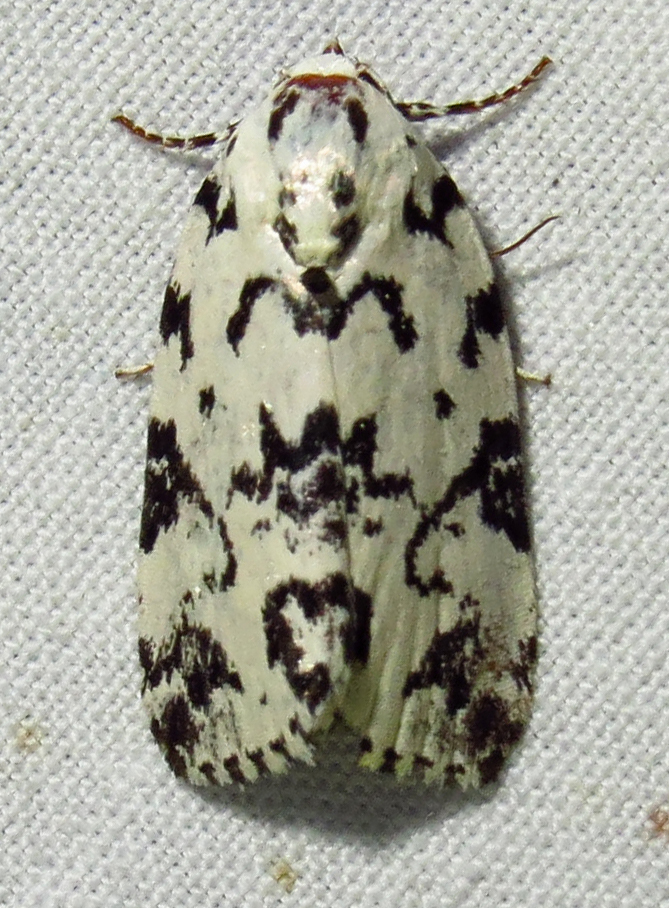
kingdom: Animalia
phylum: Arthropoda
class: Insecta
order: Lepidoptera
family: Noctuidae
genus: Polygrammate
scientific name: Polygrammate hebraeicum
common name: Hebrew moth
